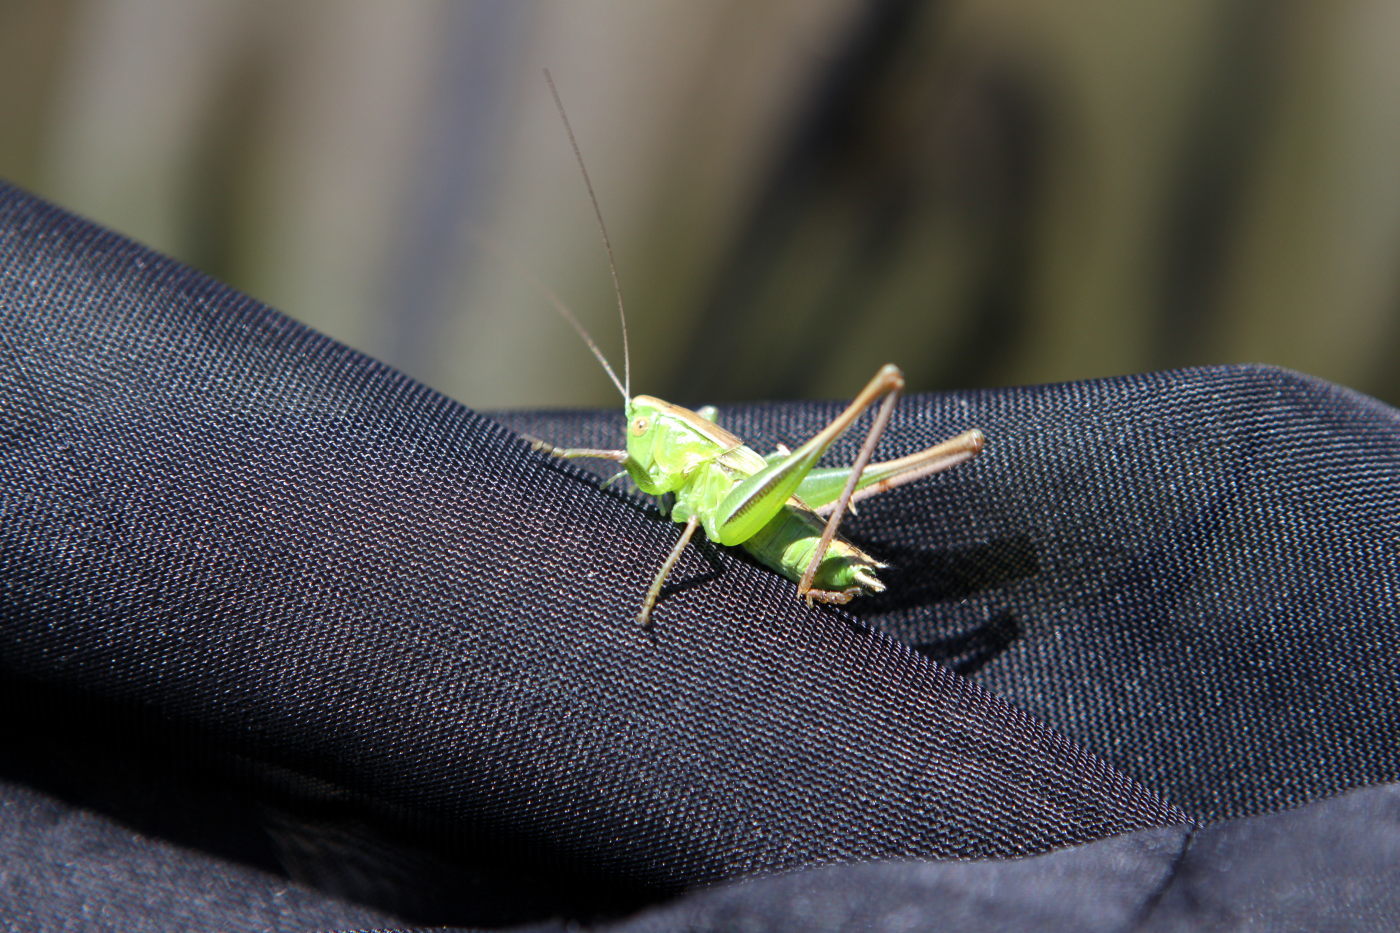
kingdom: Animalia
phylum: Arthropoda
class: Insecta
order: Orthoptera
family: Tettigoniidae
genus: Bicolorana
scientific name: Bicolorana bicolor
